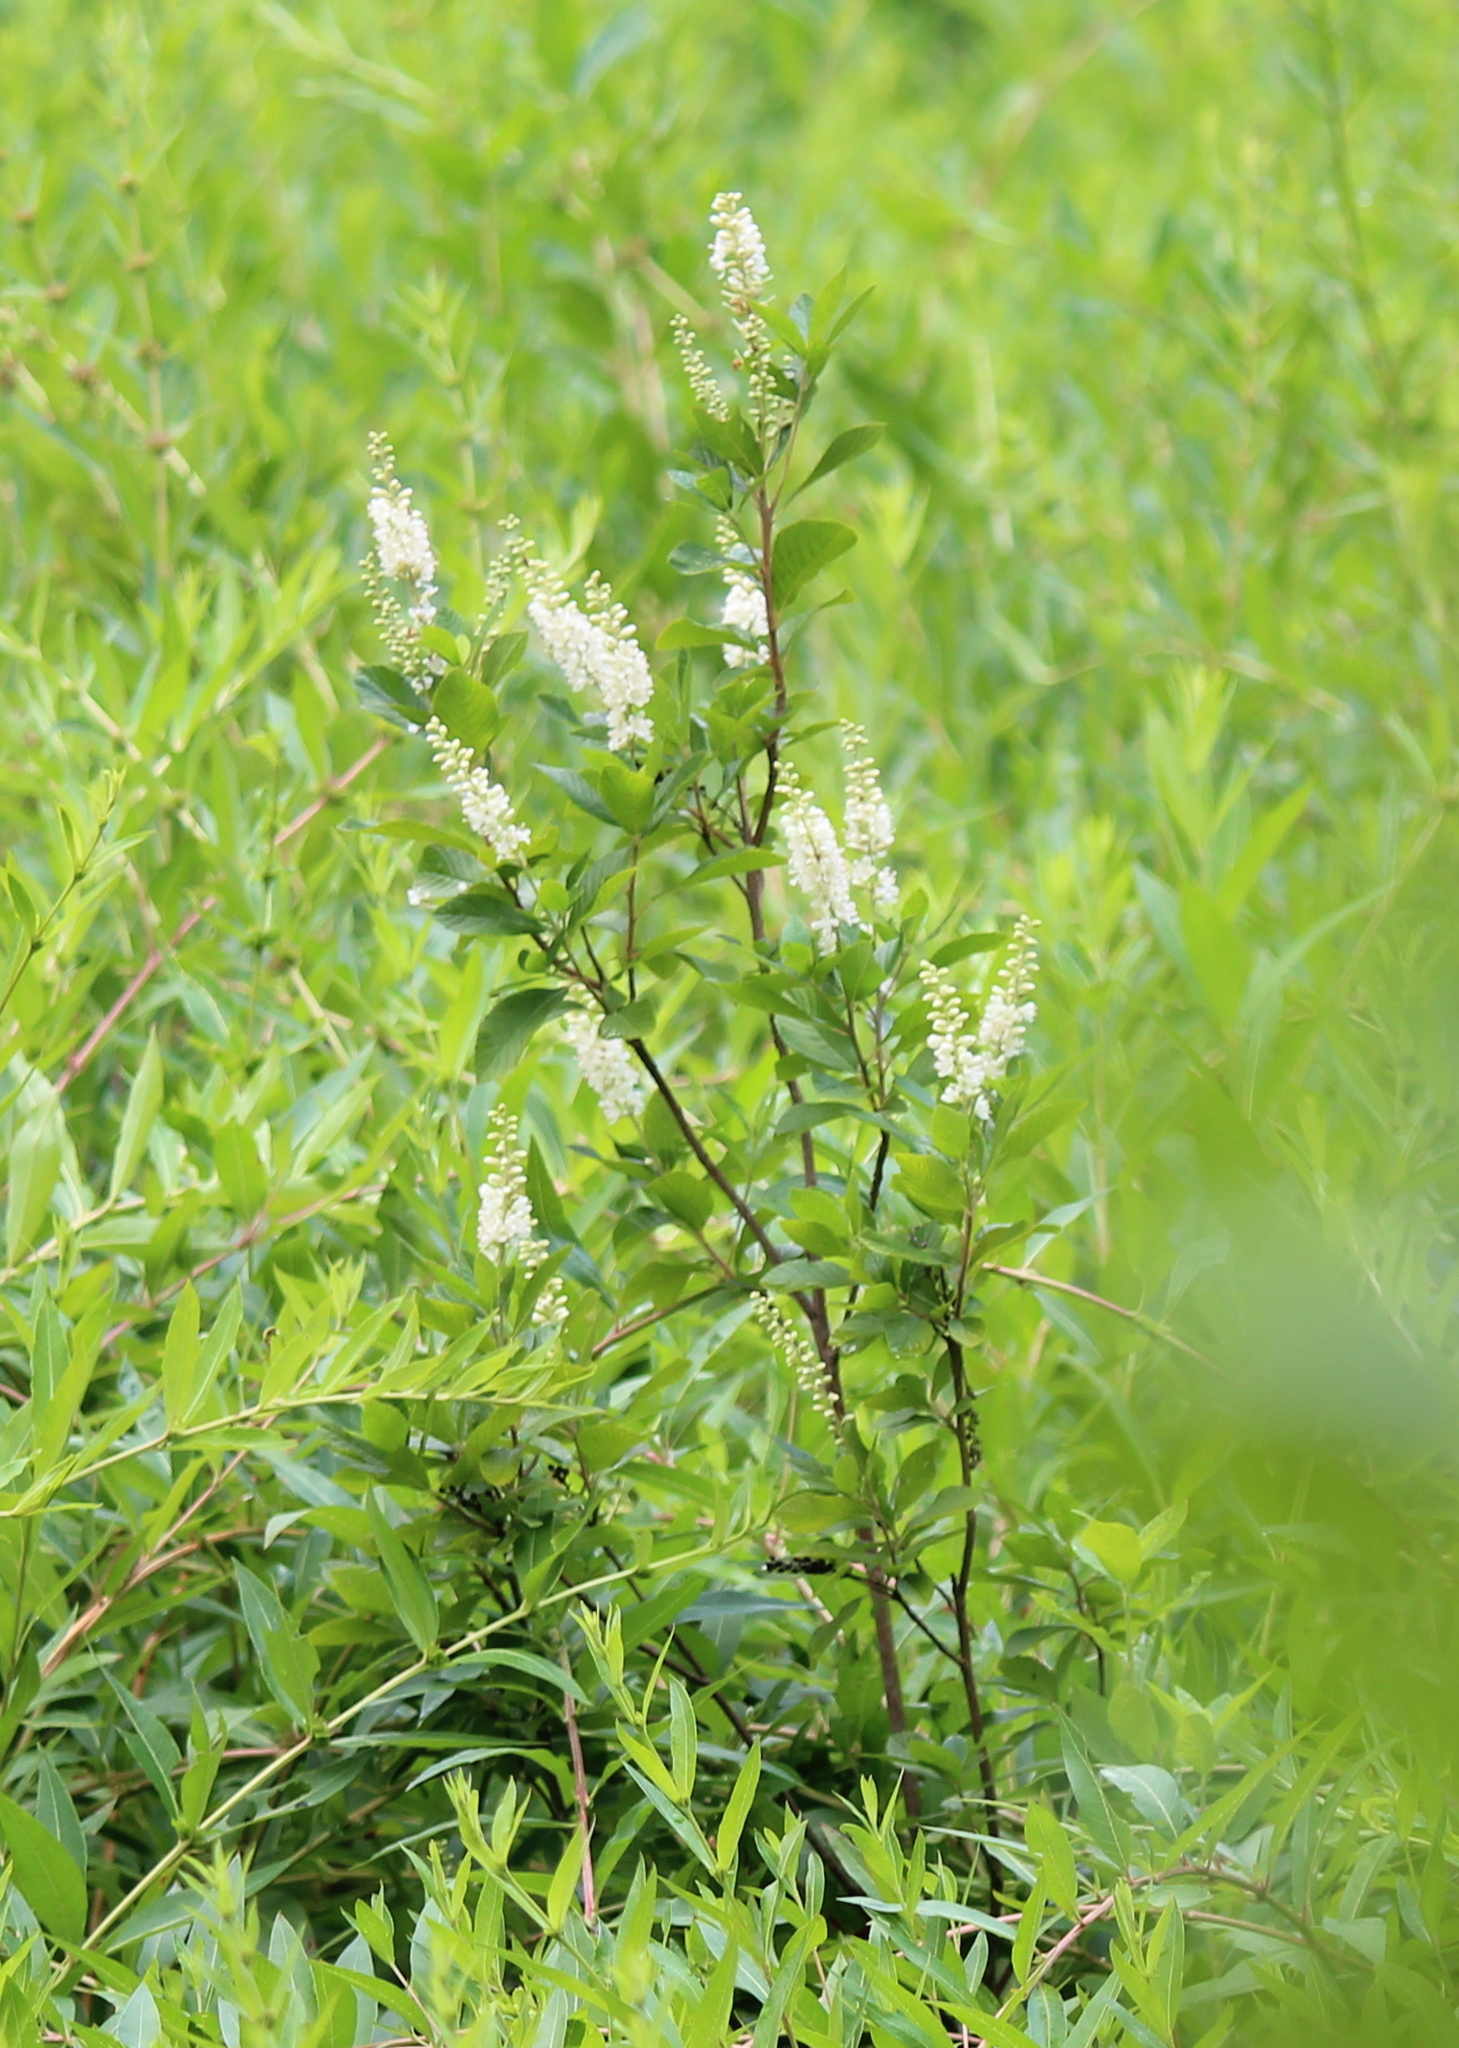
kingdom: Plantae
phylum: Tracheophyta
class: Magnoliopsida
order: Ericales
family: Clethraceae
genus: Clethra
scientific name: Clethra alnifolia
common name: Sweet pepperbush
